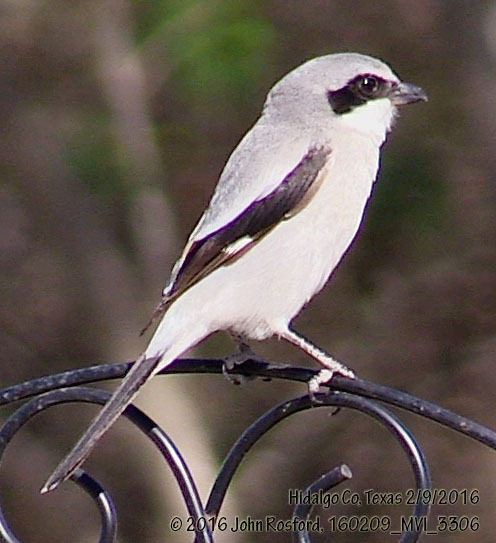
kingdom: Animalia
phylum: Chordata
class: Aves
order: Passeriformes
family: Laniidae
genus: Lanius
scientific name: Lanius ludovicianus
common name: Loggerhead shrike
